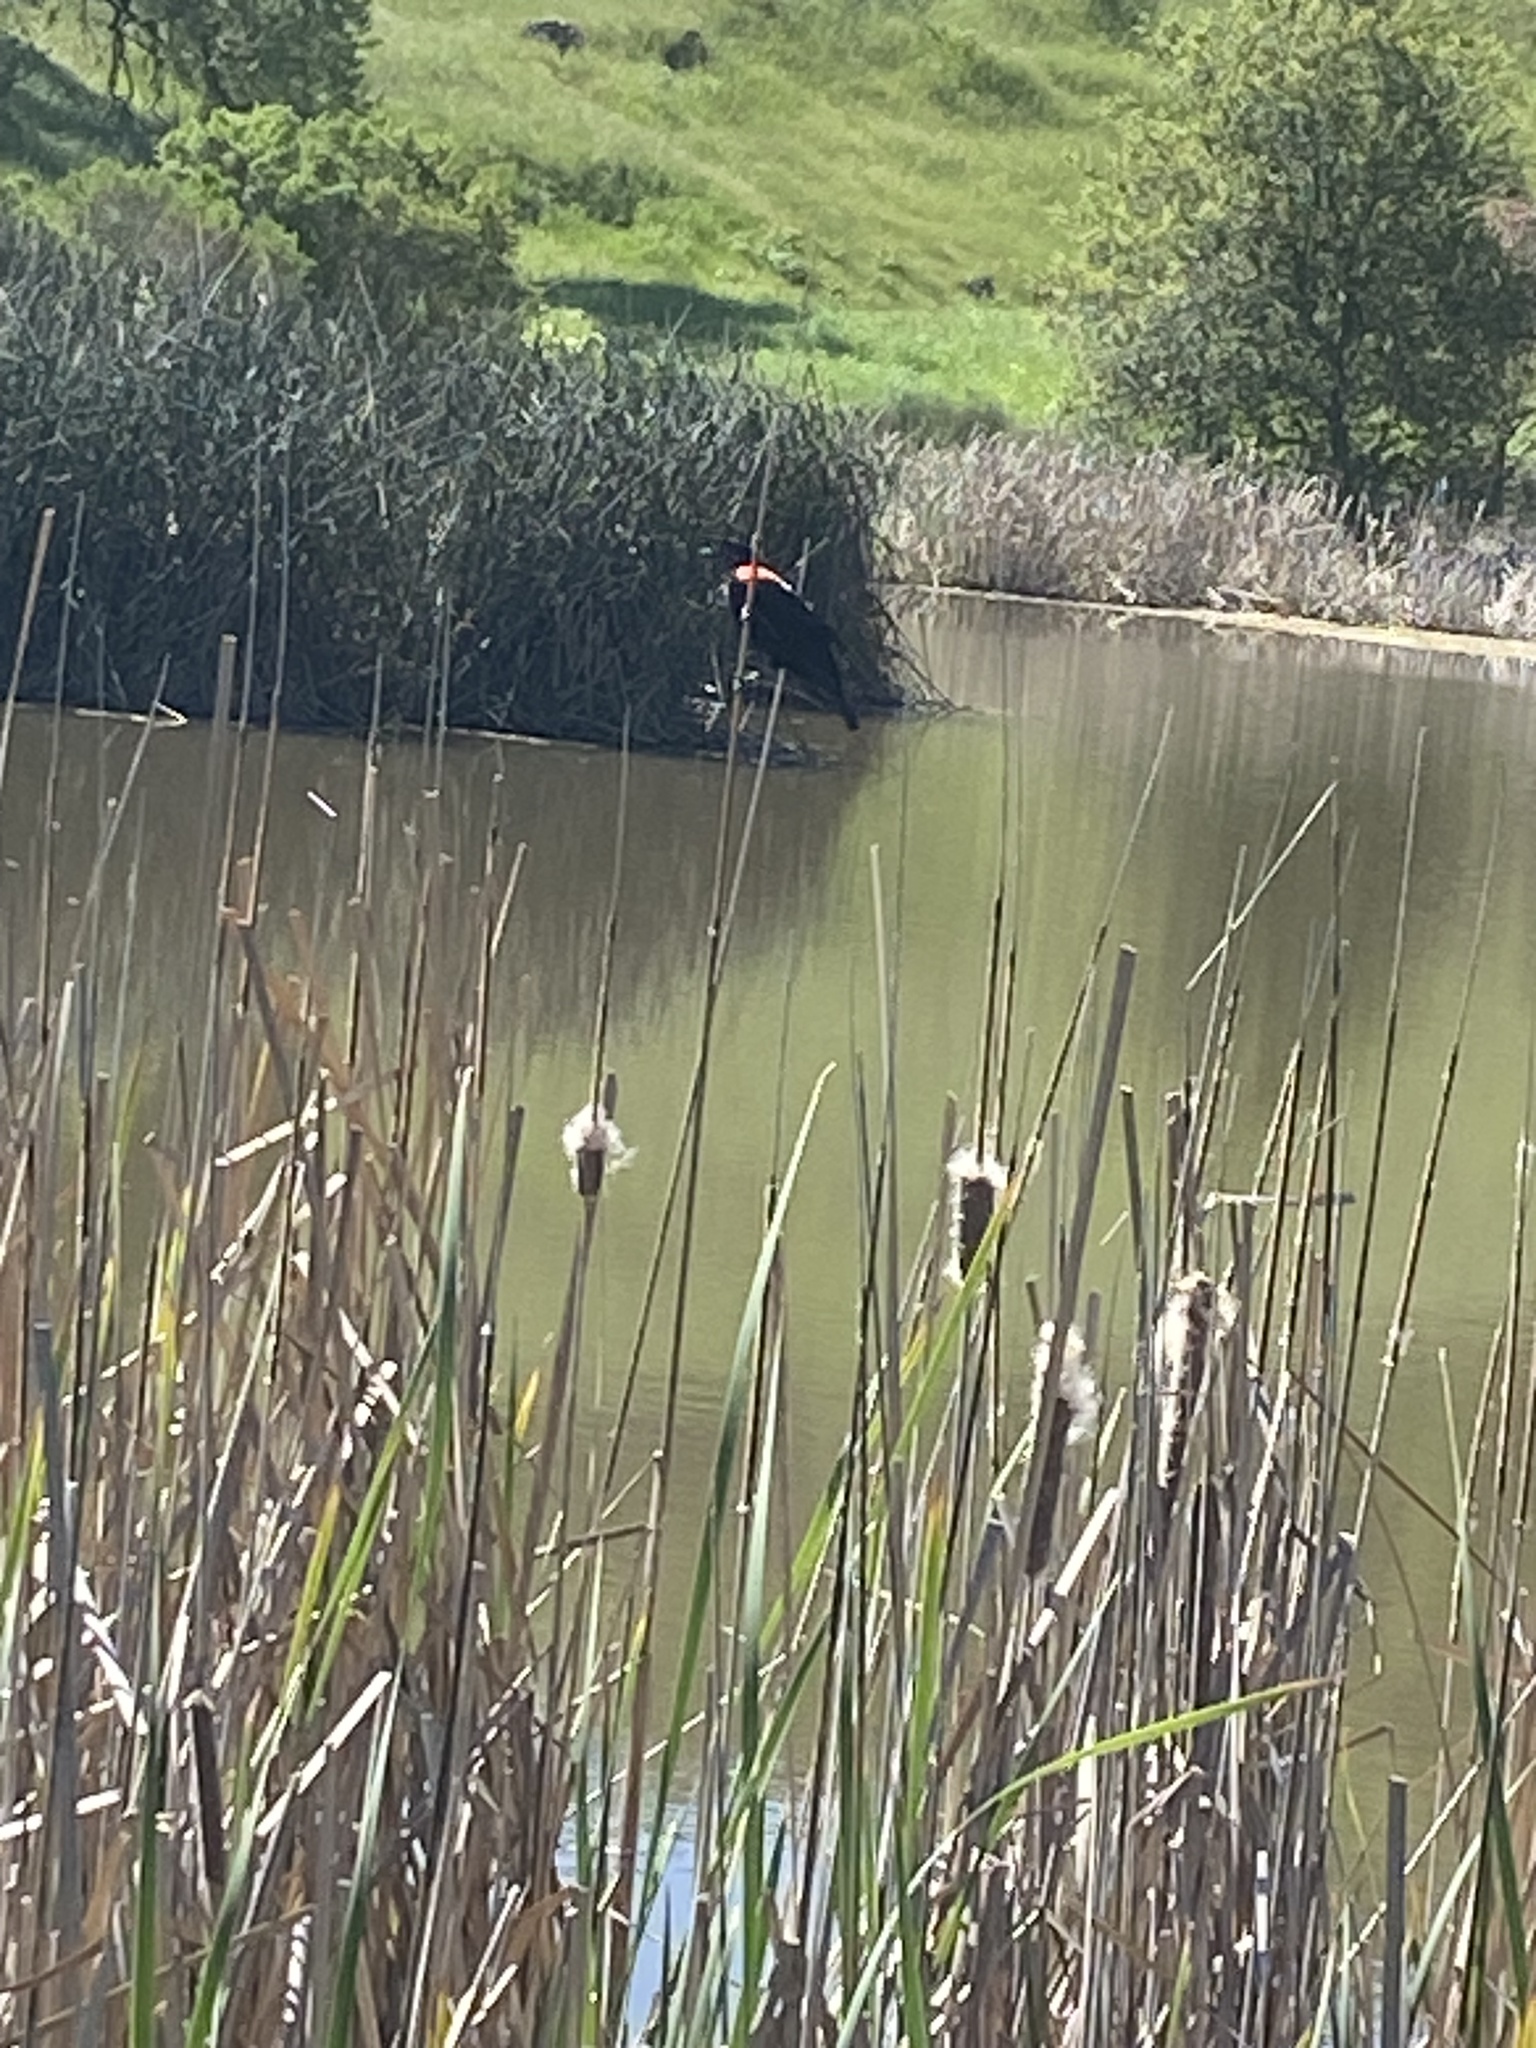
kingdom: Animalia
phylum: Chordata
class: Aves
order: Passeriformes
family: Icteridae
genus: Agelaius
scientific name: Agelaius phoeniceus
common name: Red-winged blackbird
